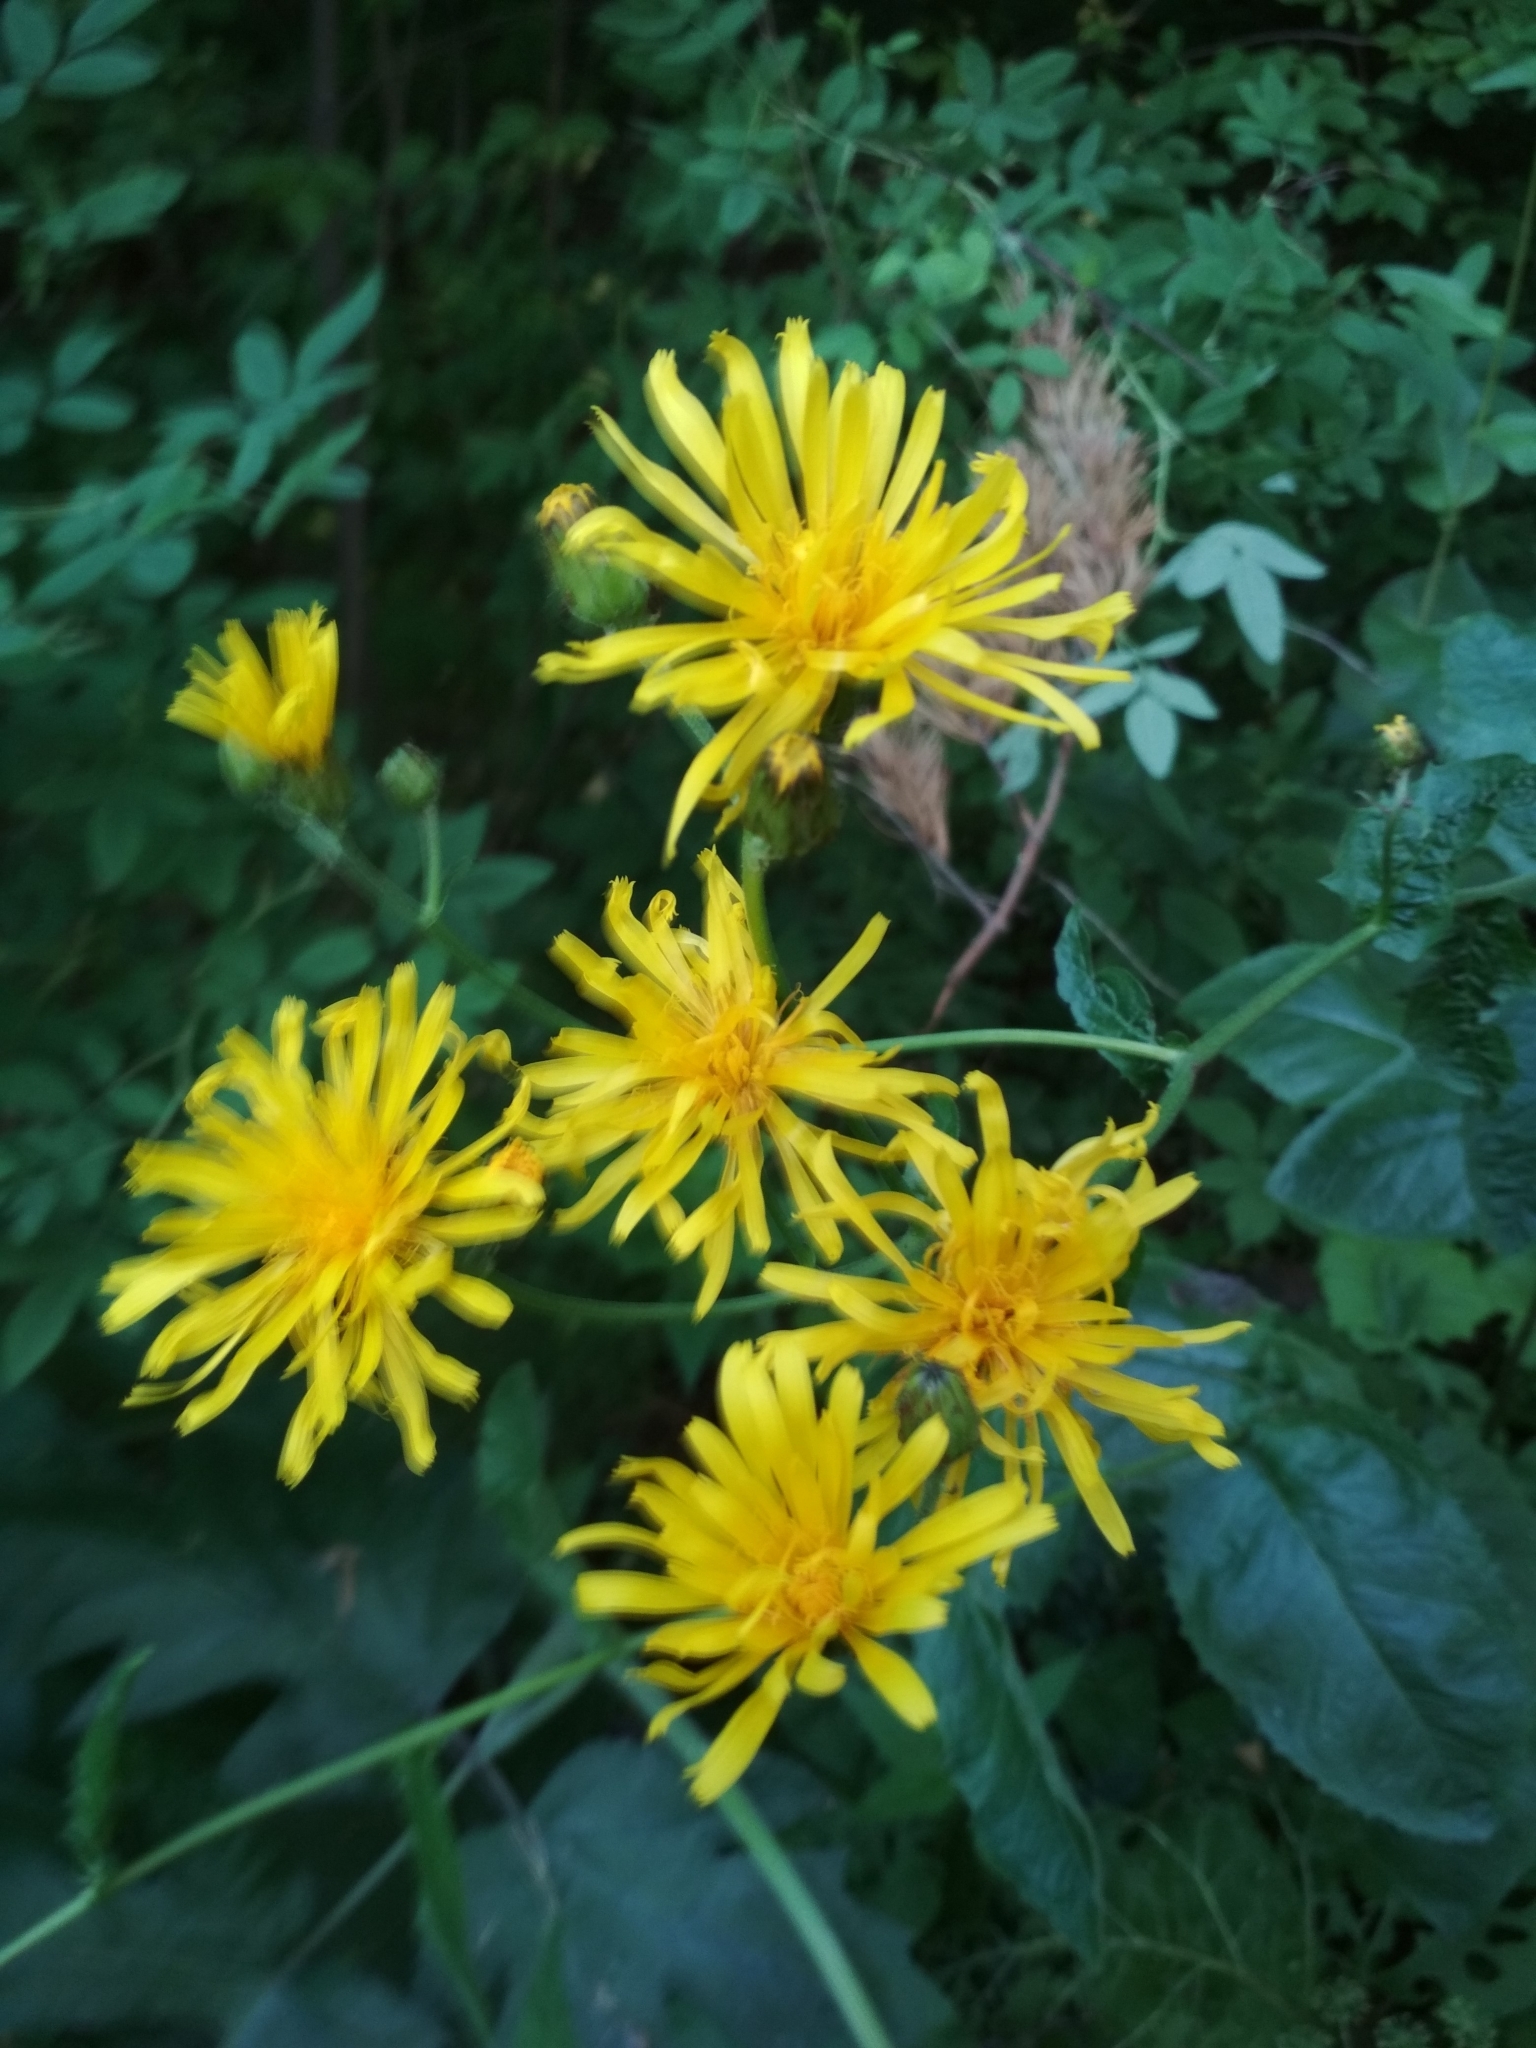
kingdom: Plantae
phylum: Tracheophyta
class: Magnoliopsida
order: Asterales
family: Asteraceae
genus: Crepis
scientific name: Crepis sibirica
